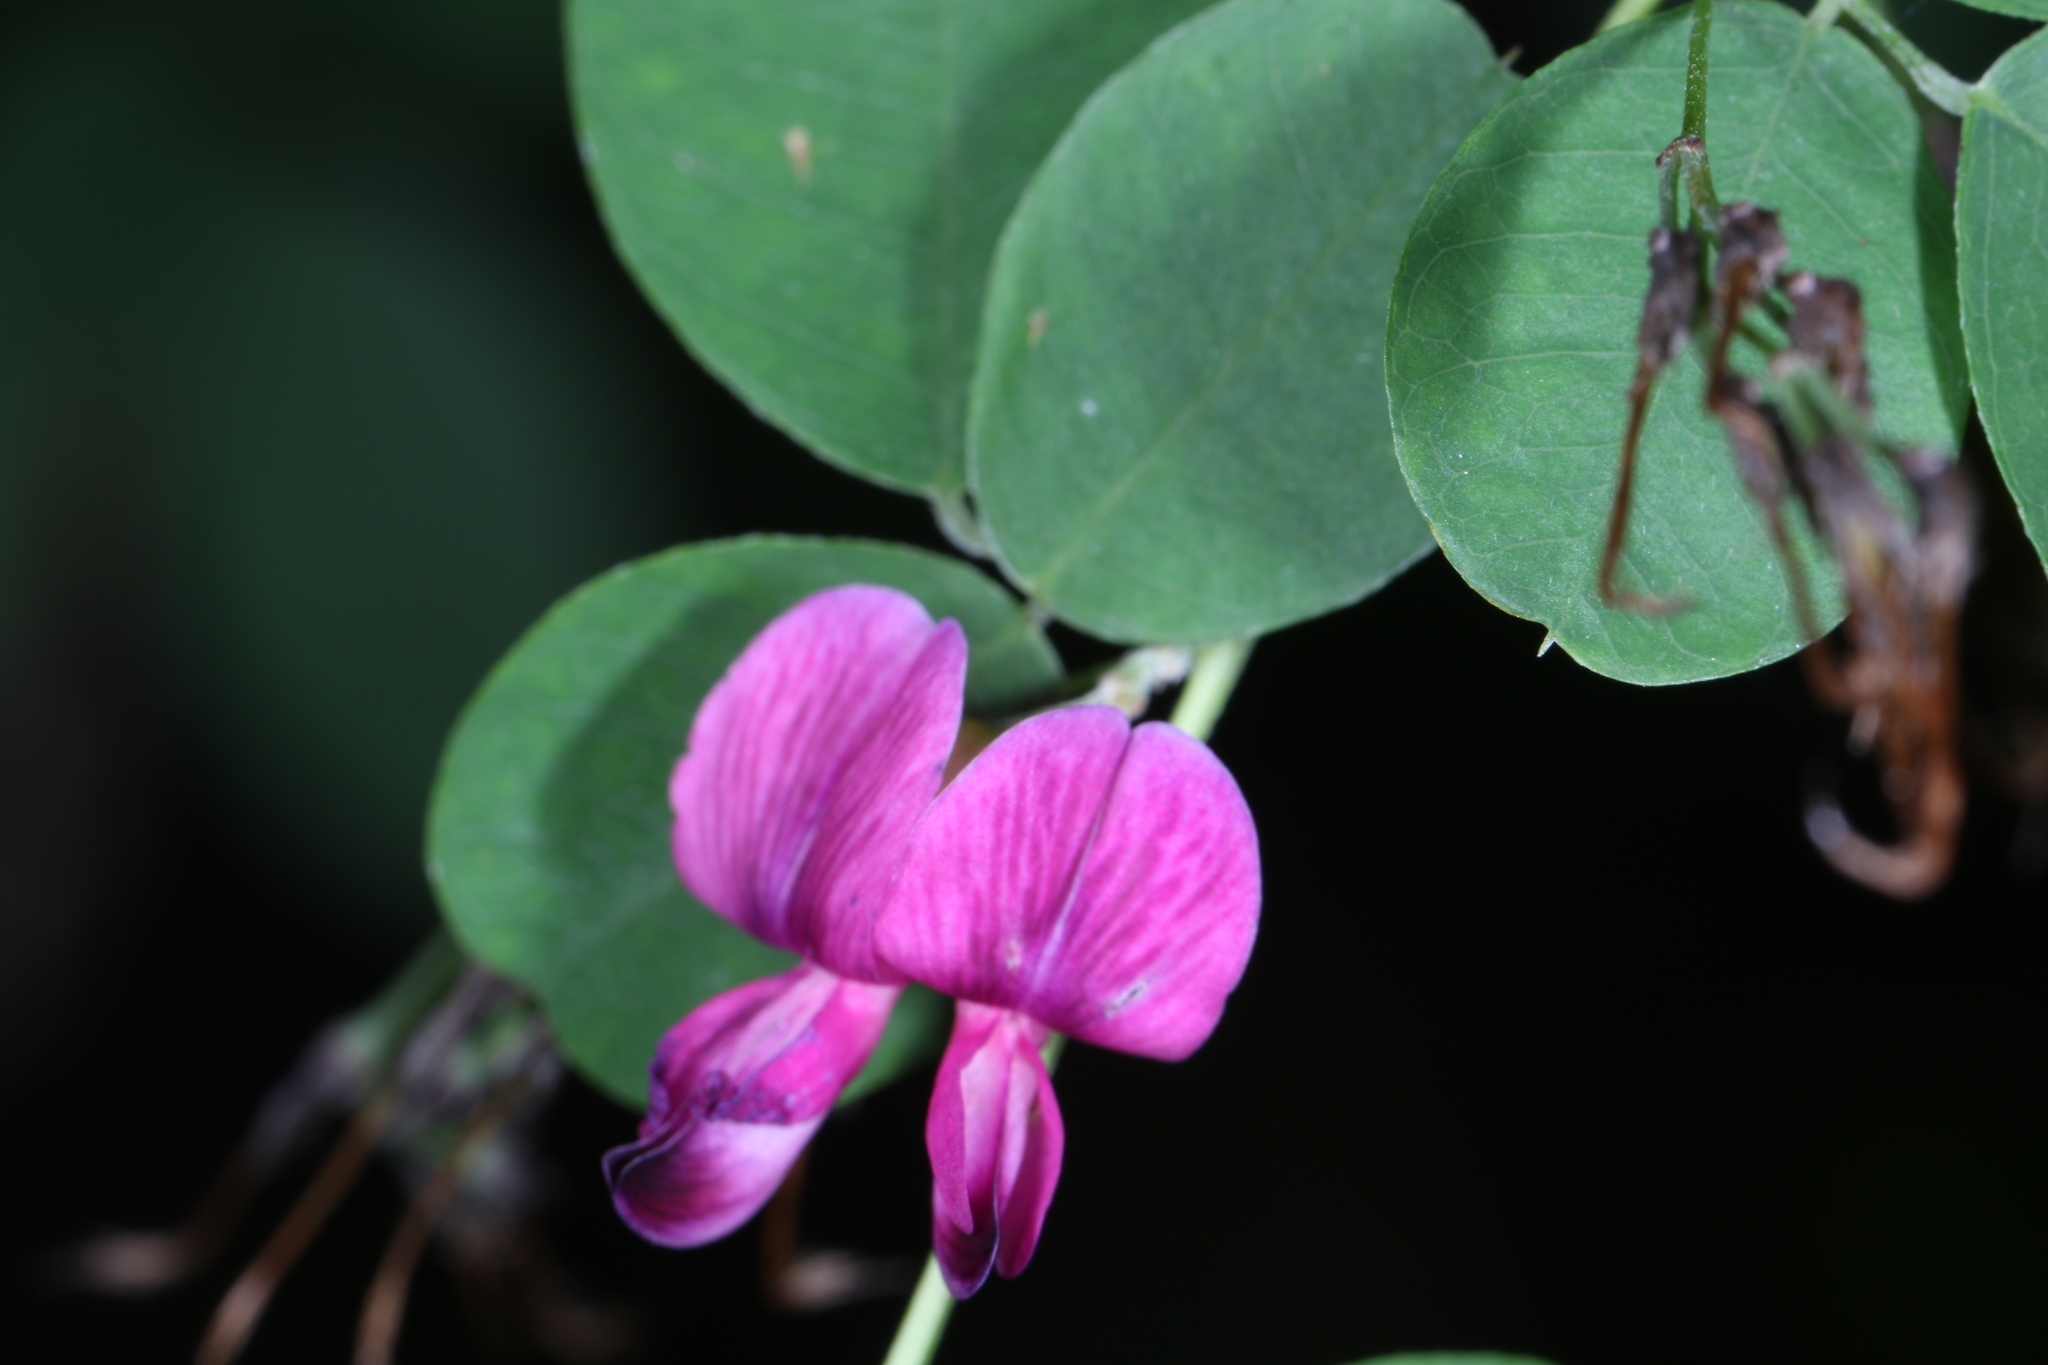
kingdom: Plantae
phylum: Tracheophyta
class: Magnoliopsida
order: Fabales
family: Fabaceae
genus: Lespedeza
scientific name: Lespedeza bicolor
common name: Shrub lespedeza
